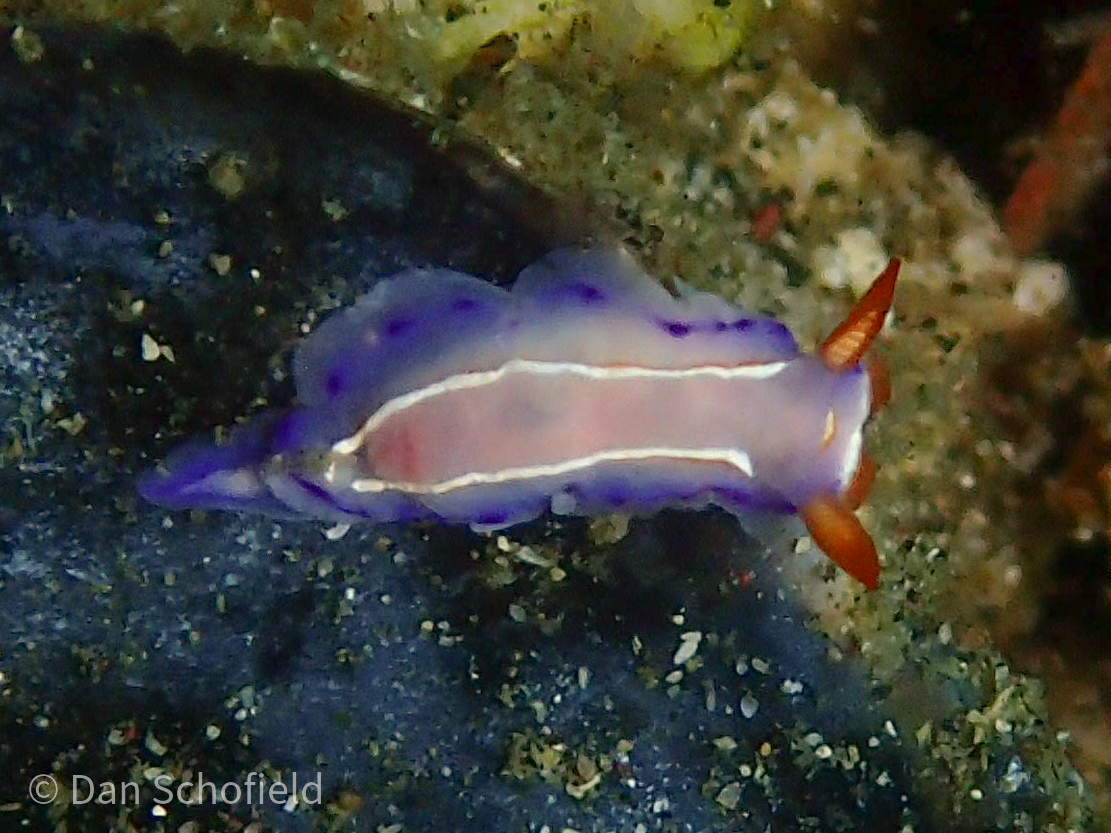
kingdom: Animalia
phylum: Mollusca
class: Gastropoda
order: Nudibranchia
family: Chromodorididae
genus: Thorunna
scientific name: Thorunna florens
